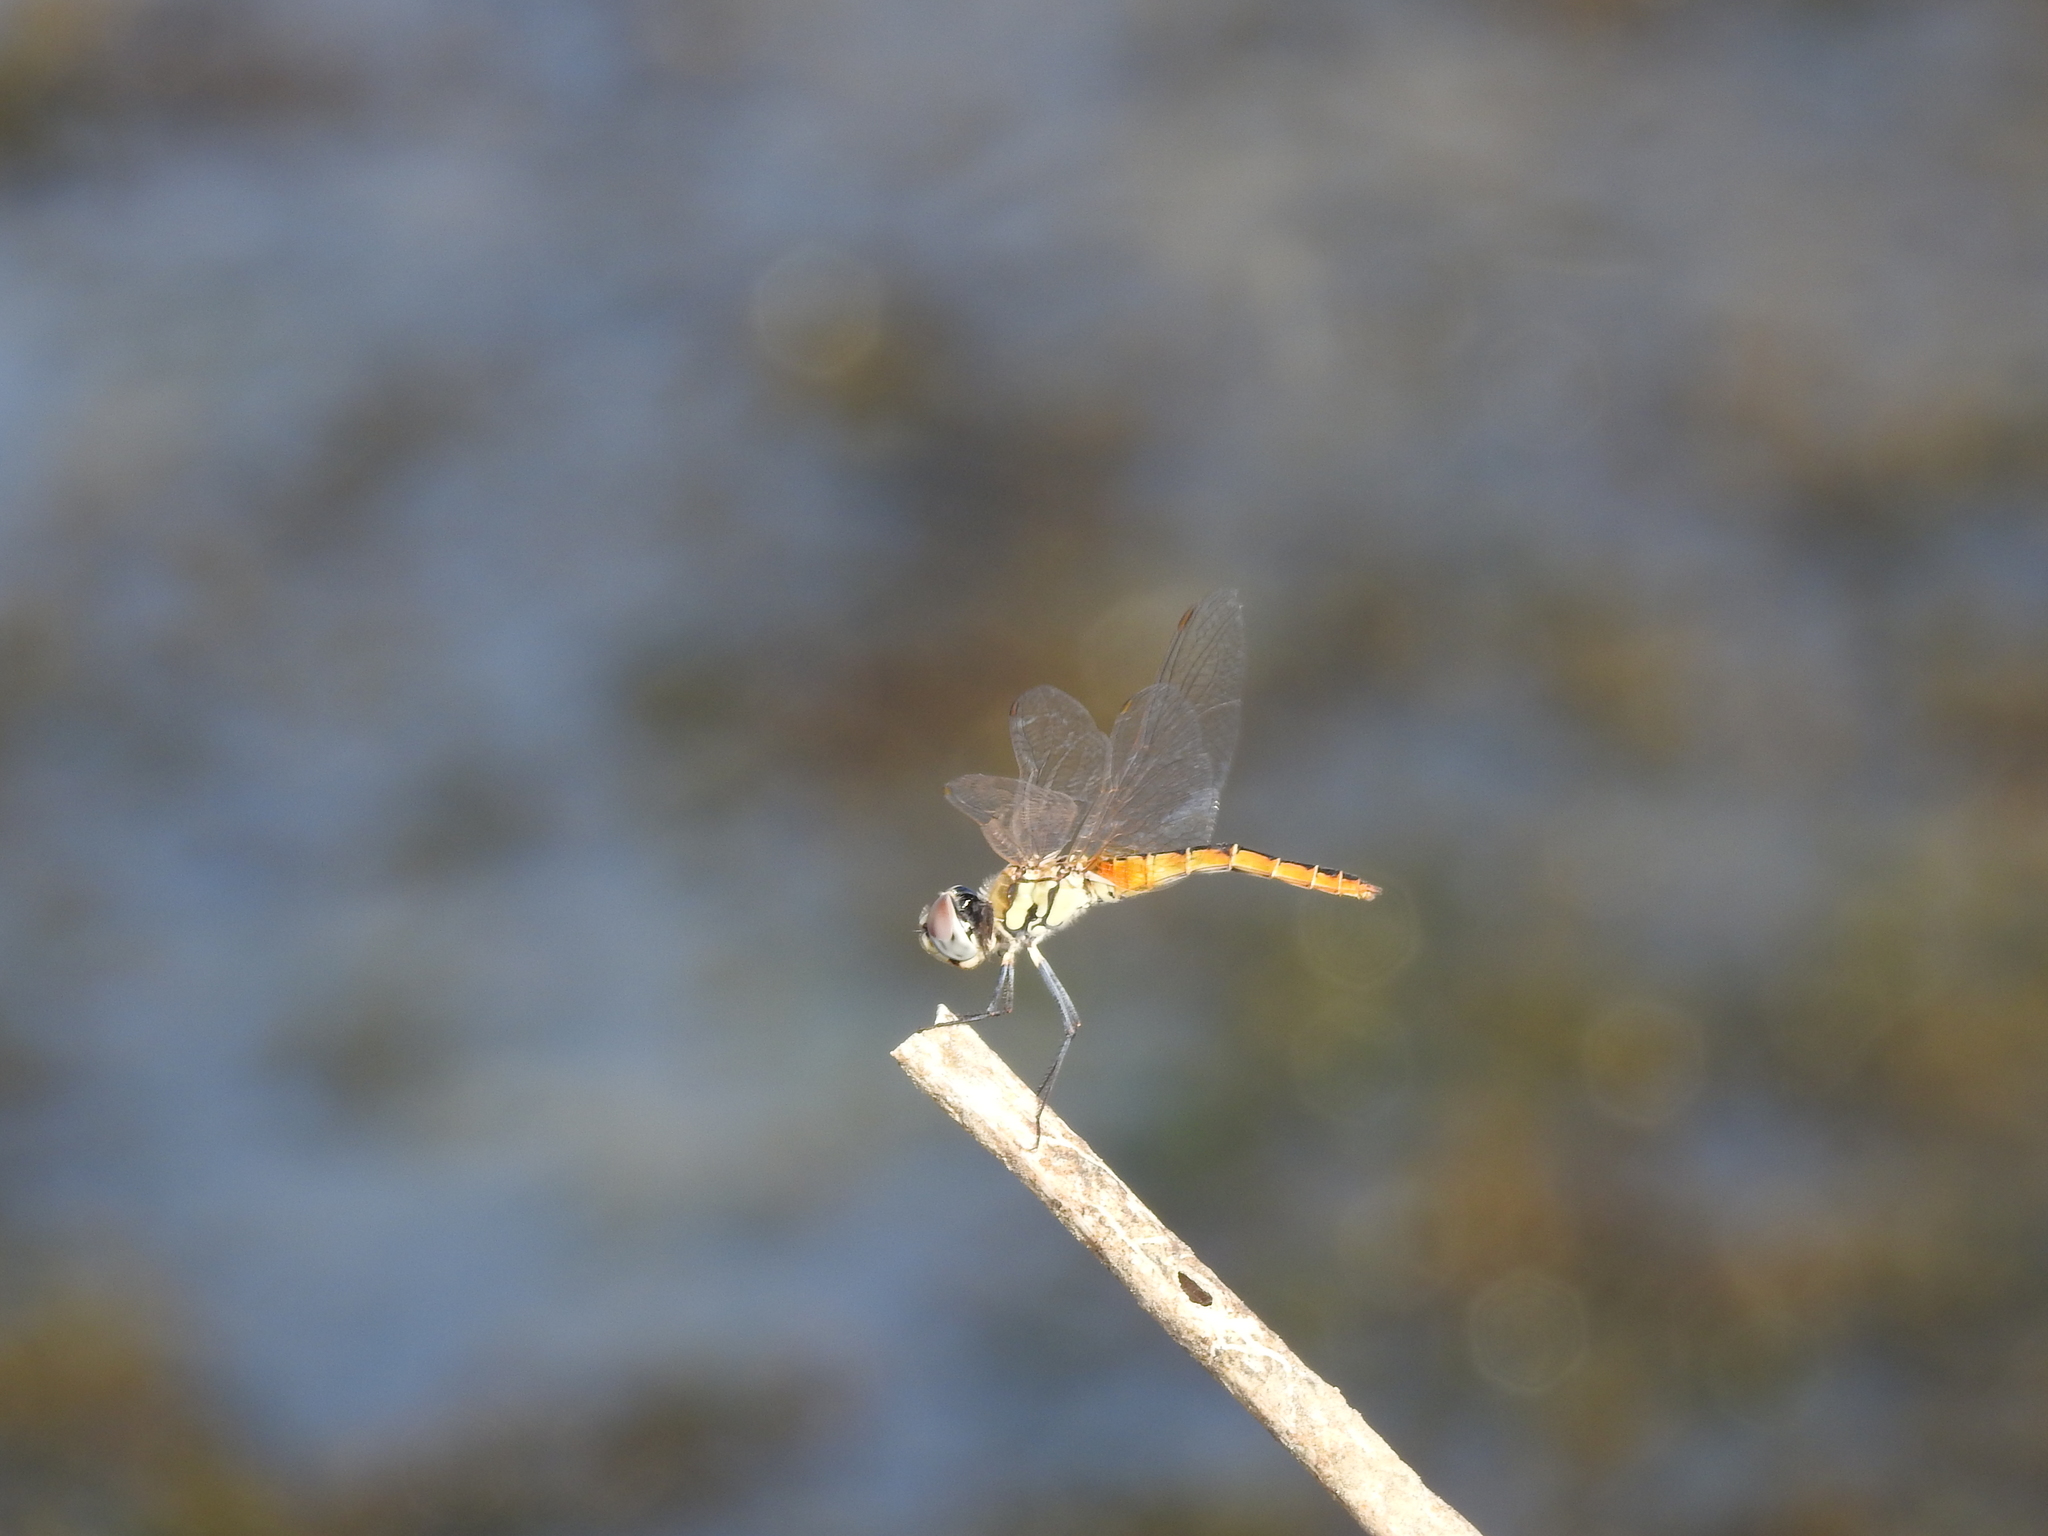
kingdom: Animalia
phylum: Arthropoda
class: Insecta
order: Odonata
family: Libellulidae
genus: Macrodiplax
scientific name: Macrodiplax cora
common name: Coastal glider
